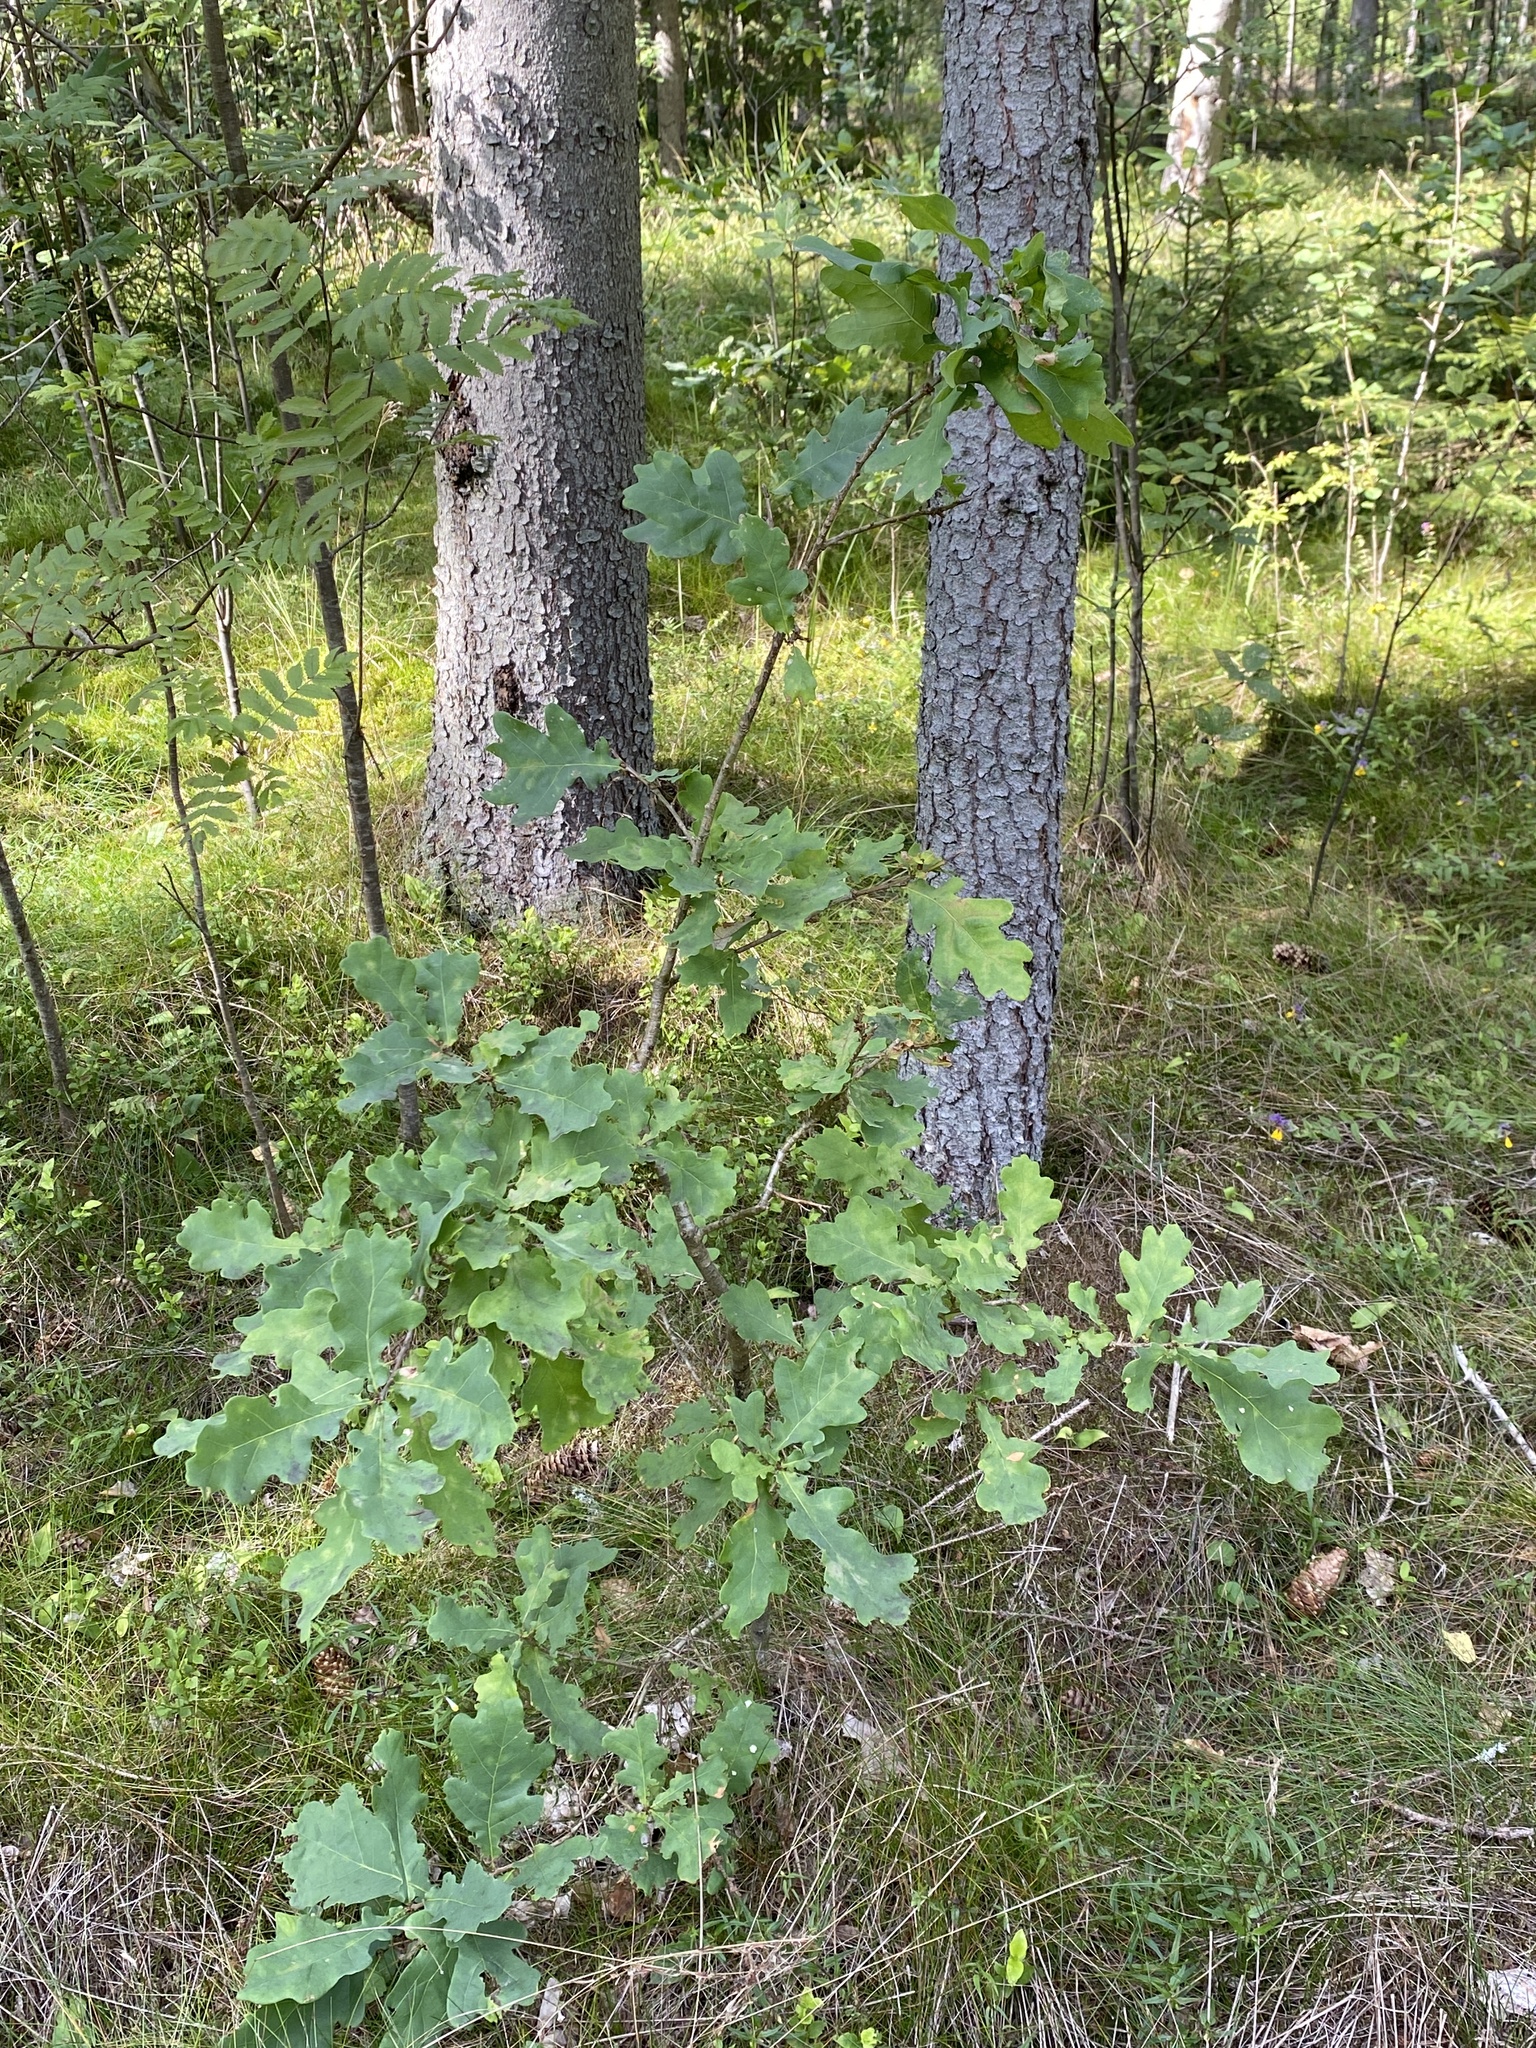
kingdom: Plantae
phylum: Tracheophyta
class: Magnoliopsida
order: Fagales
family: Fagaceae
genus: Quercus
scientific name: Quercus robur
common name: Pedunculate oak
